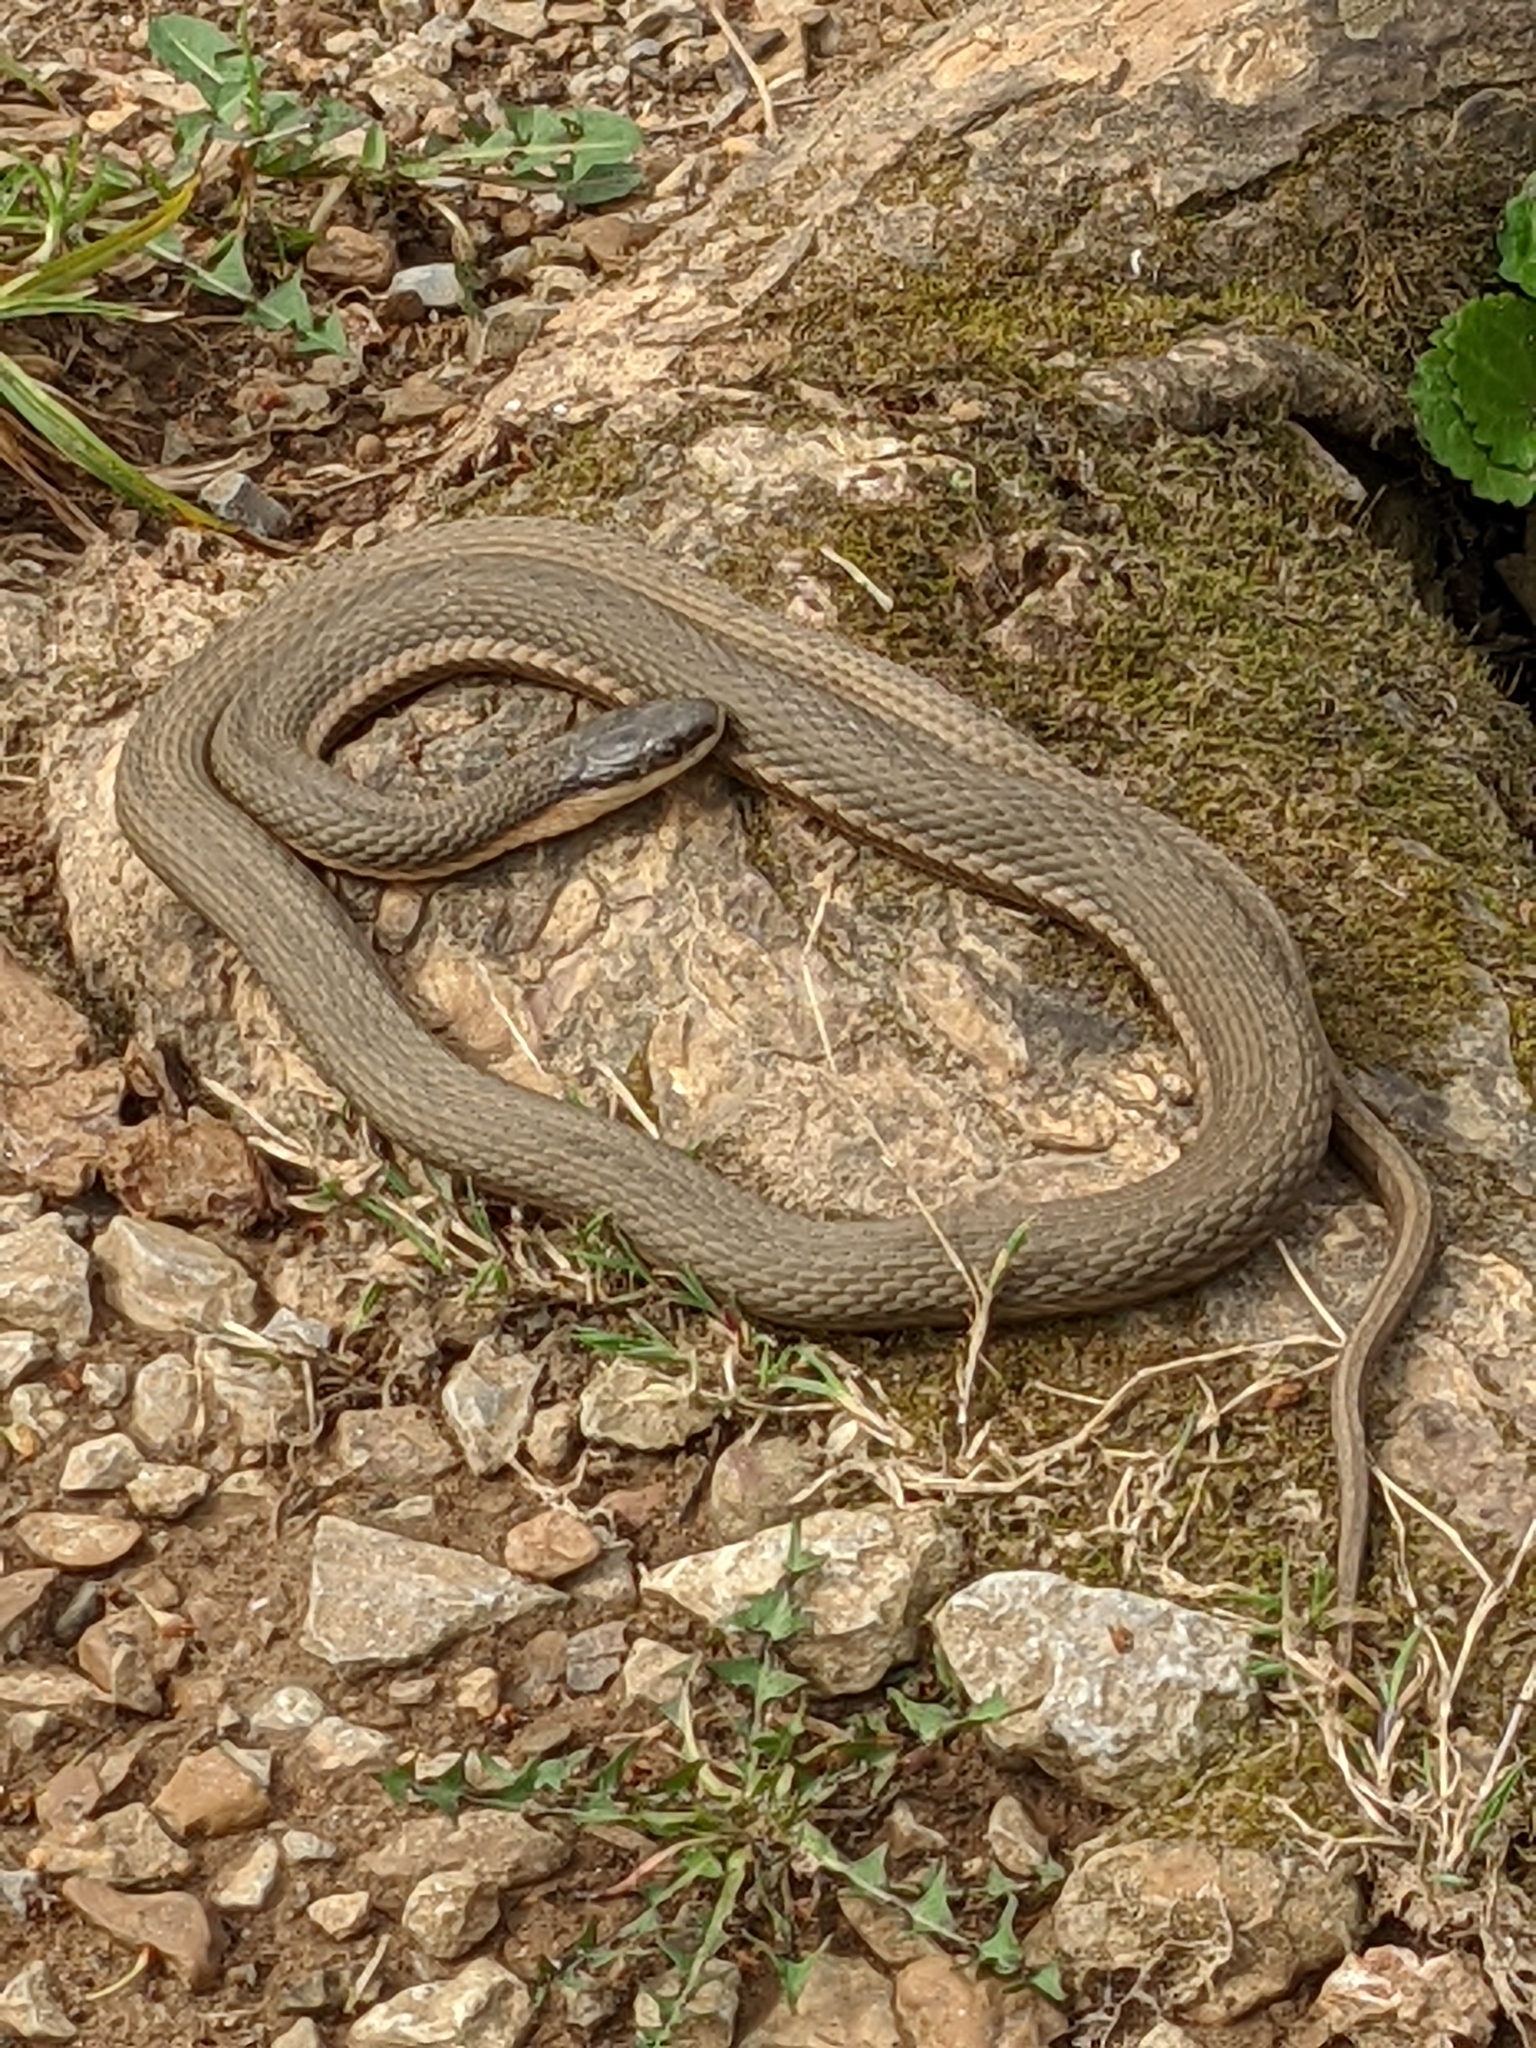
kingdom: Animalia
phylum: Chordata
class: Squamata
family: Colubridae
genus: Regina
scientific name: Regina septemvittata
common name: Queen snake
